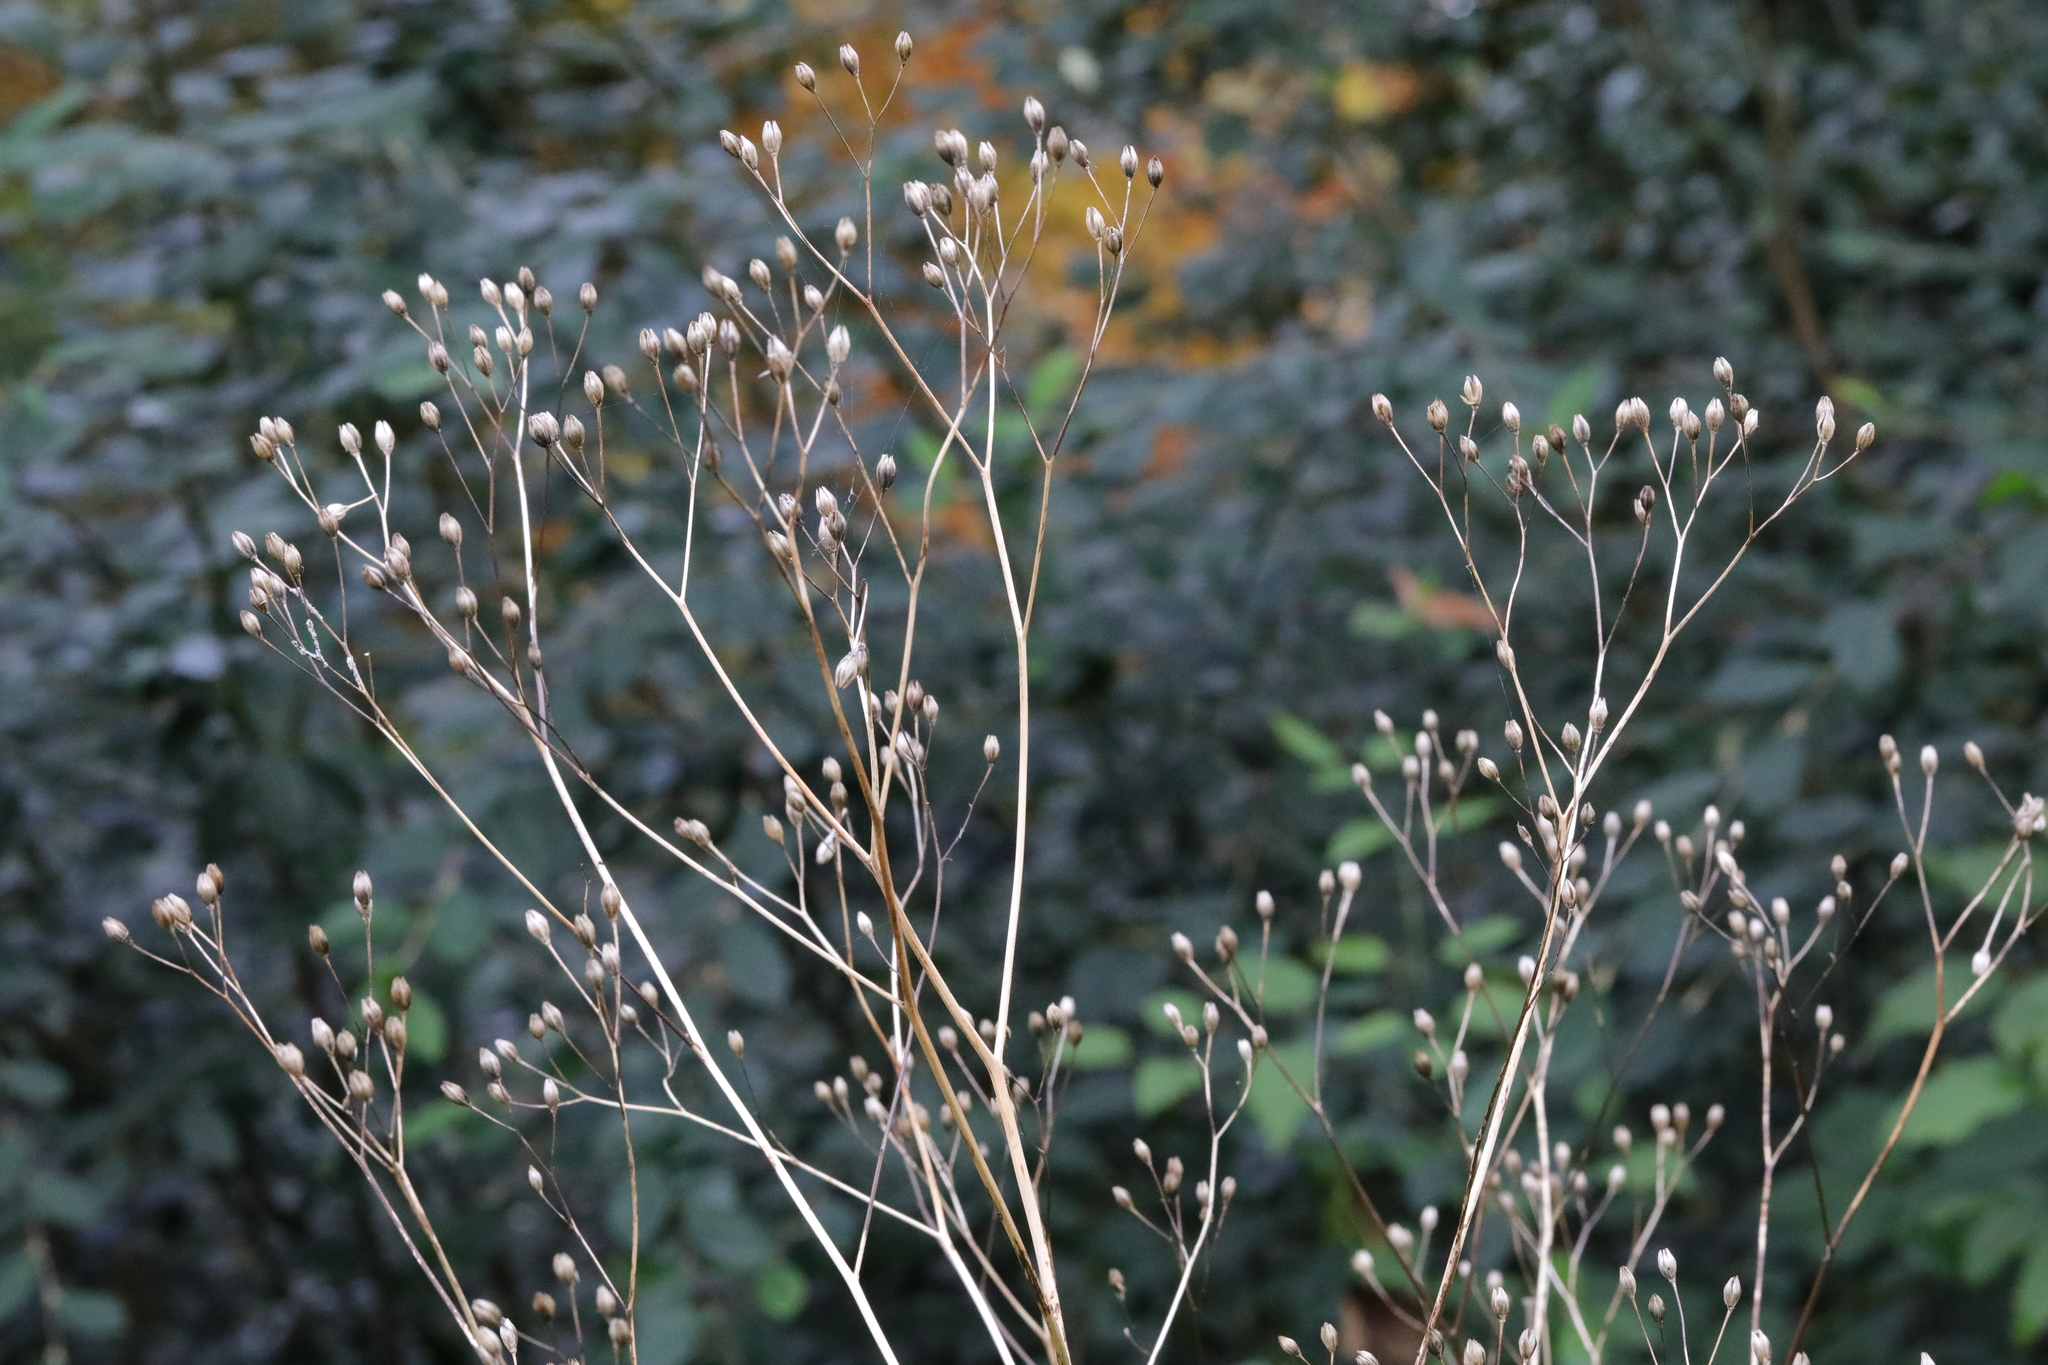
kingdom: Plantae
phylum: Tracheophyta
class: Magnoliopsida
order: Asterales
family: Asteraceae
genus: Lapsana
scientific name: Lapsana communis
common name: Nipplewort
